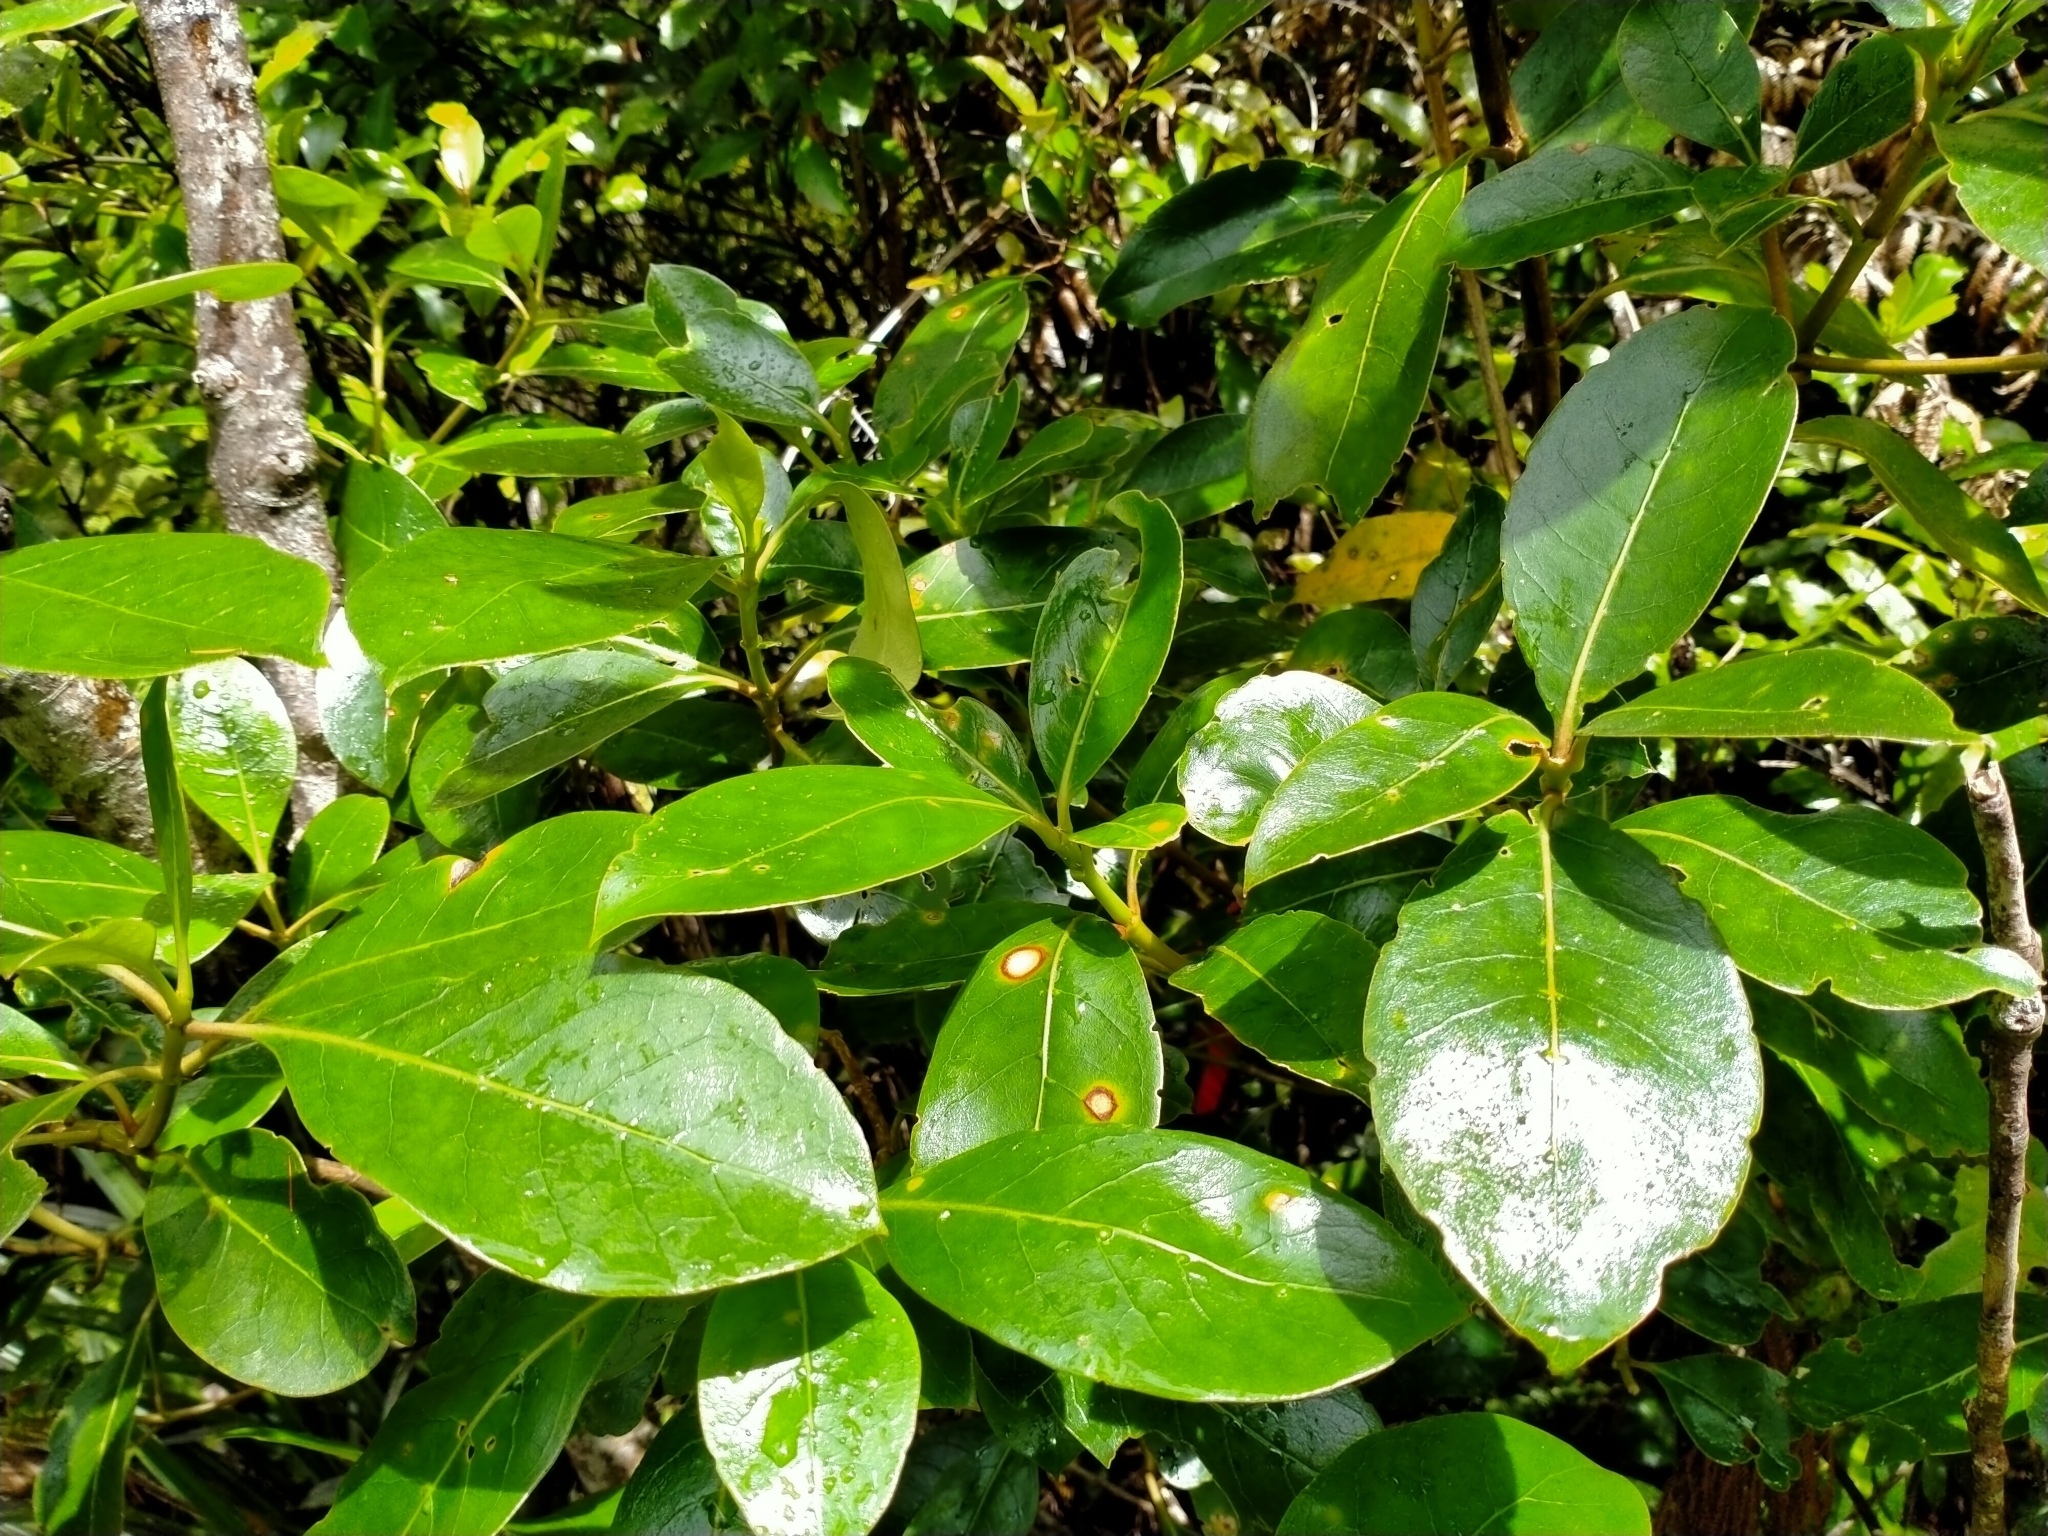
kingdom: Plantae
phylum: Tracheophyta
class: Magnoliopsida
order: Gentianales
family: Rubiaceae
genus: Coprosma
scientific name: Coprosma lucida
